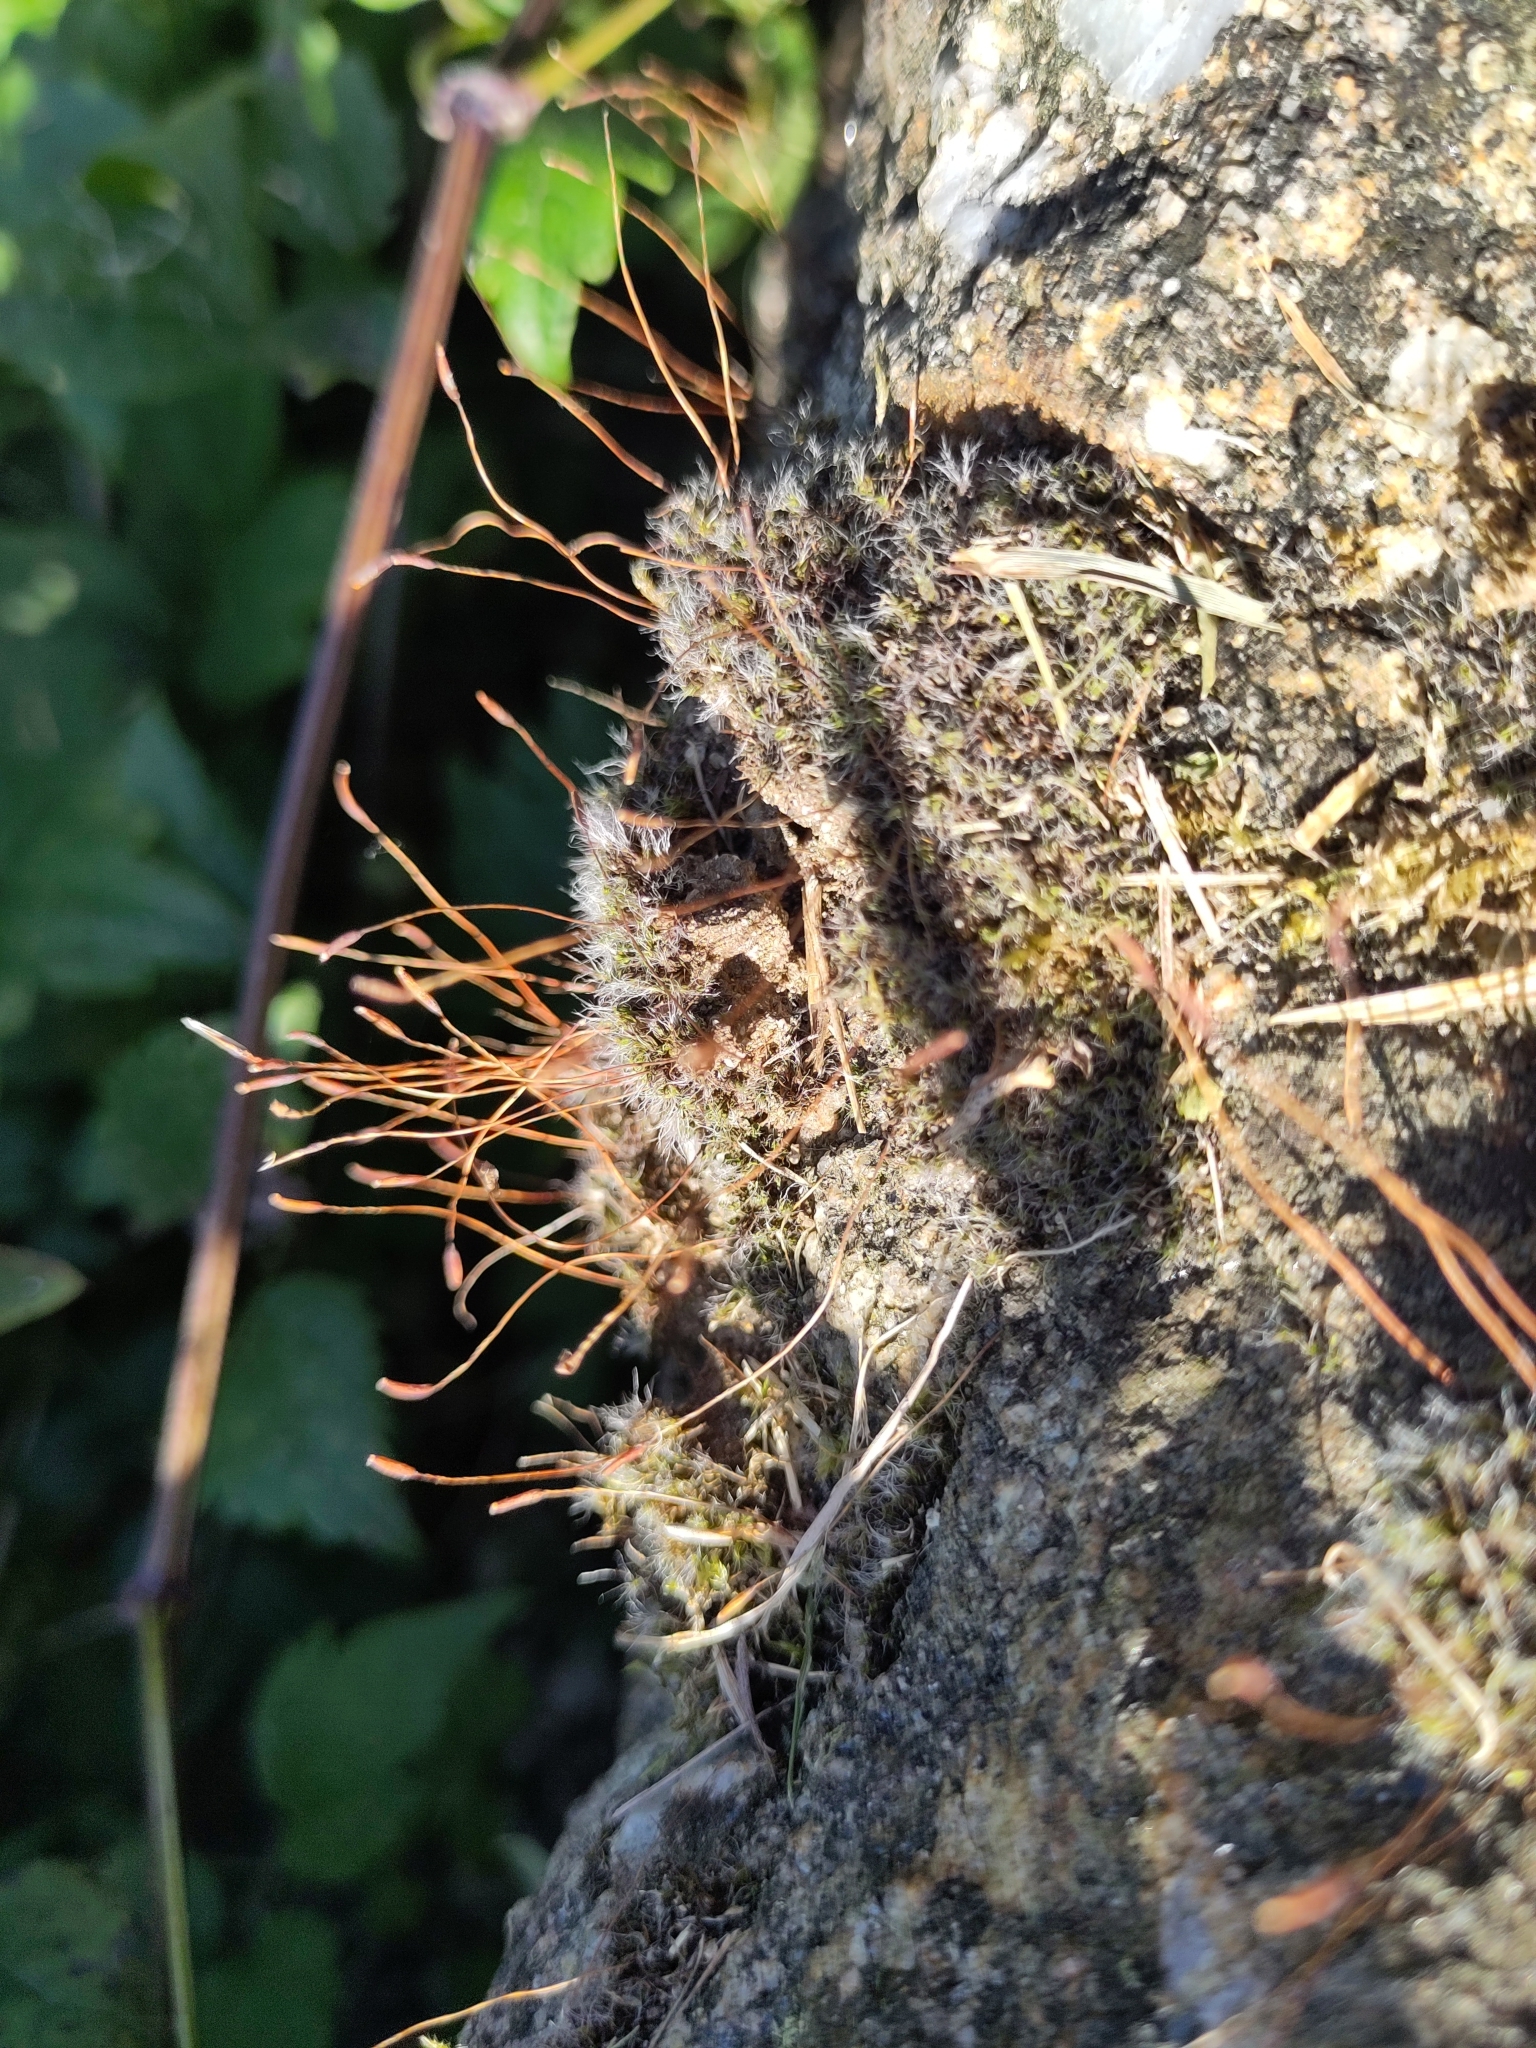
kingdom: Plantae
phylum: Bryophyta
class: Bryopsida
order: Pottiales
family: Pottiaceae
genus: Tortula
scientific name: Tortula muralis
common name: Wall screw-moss
